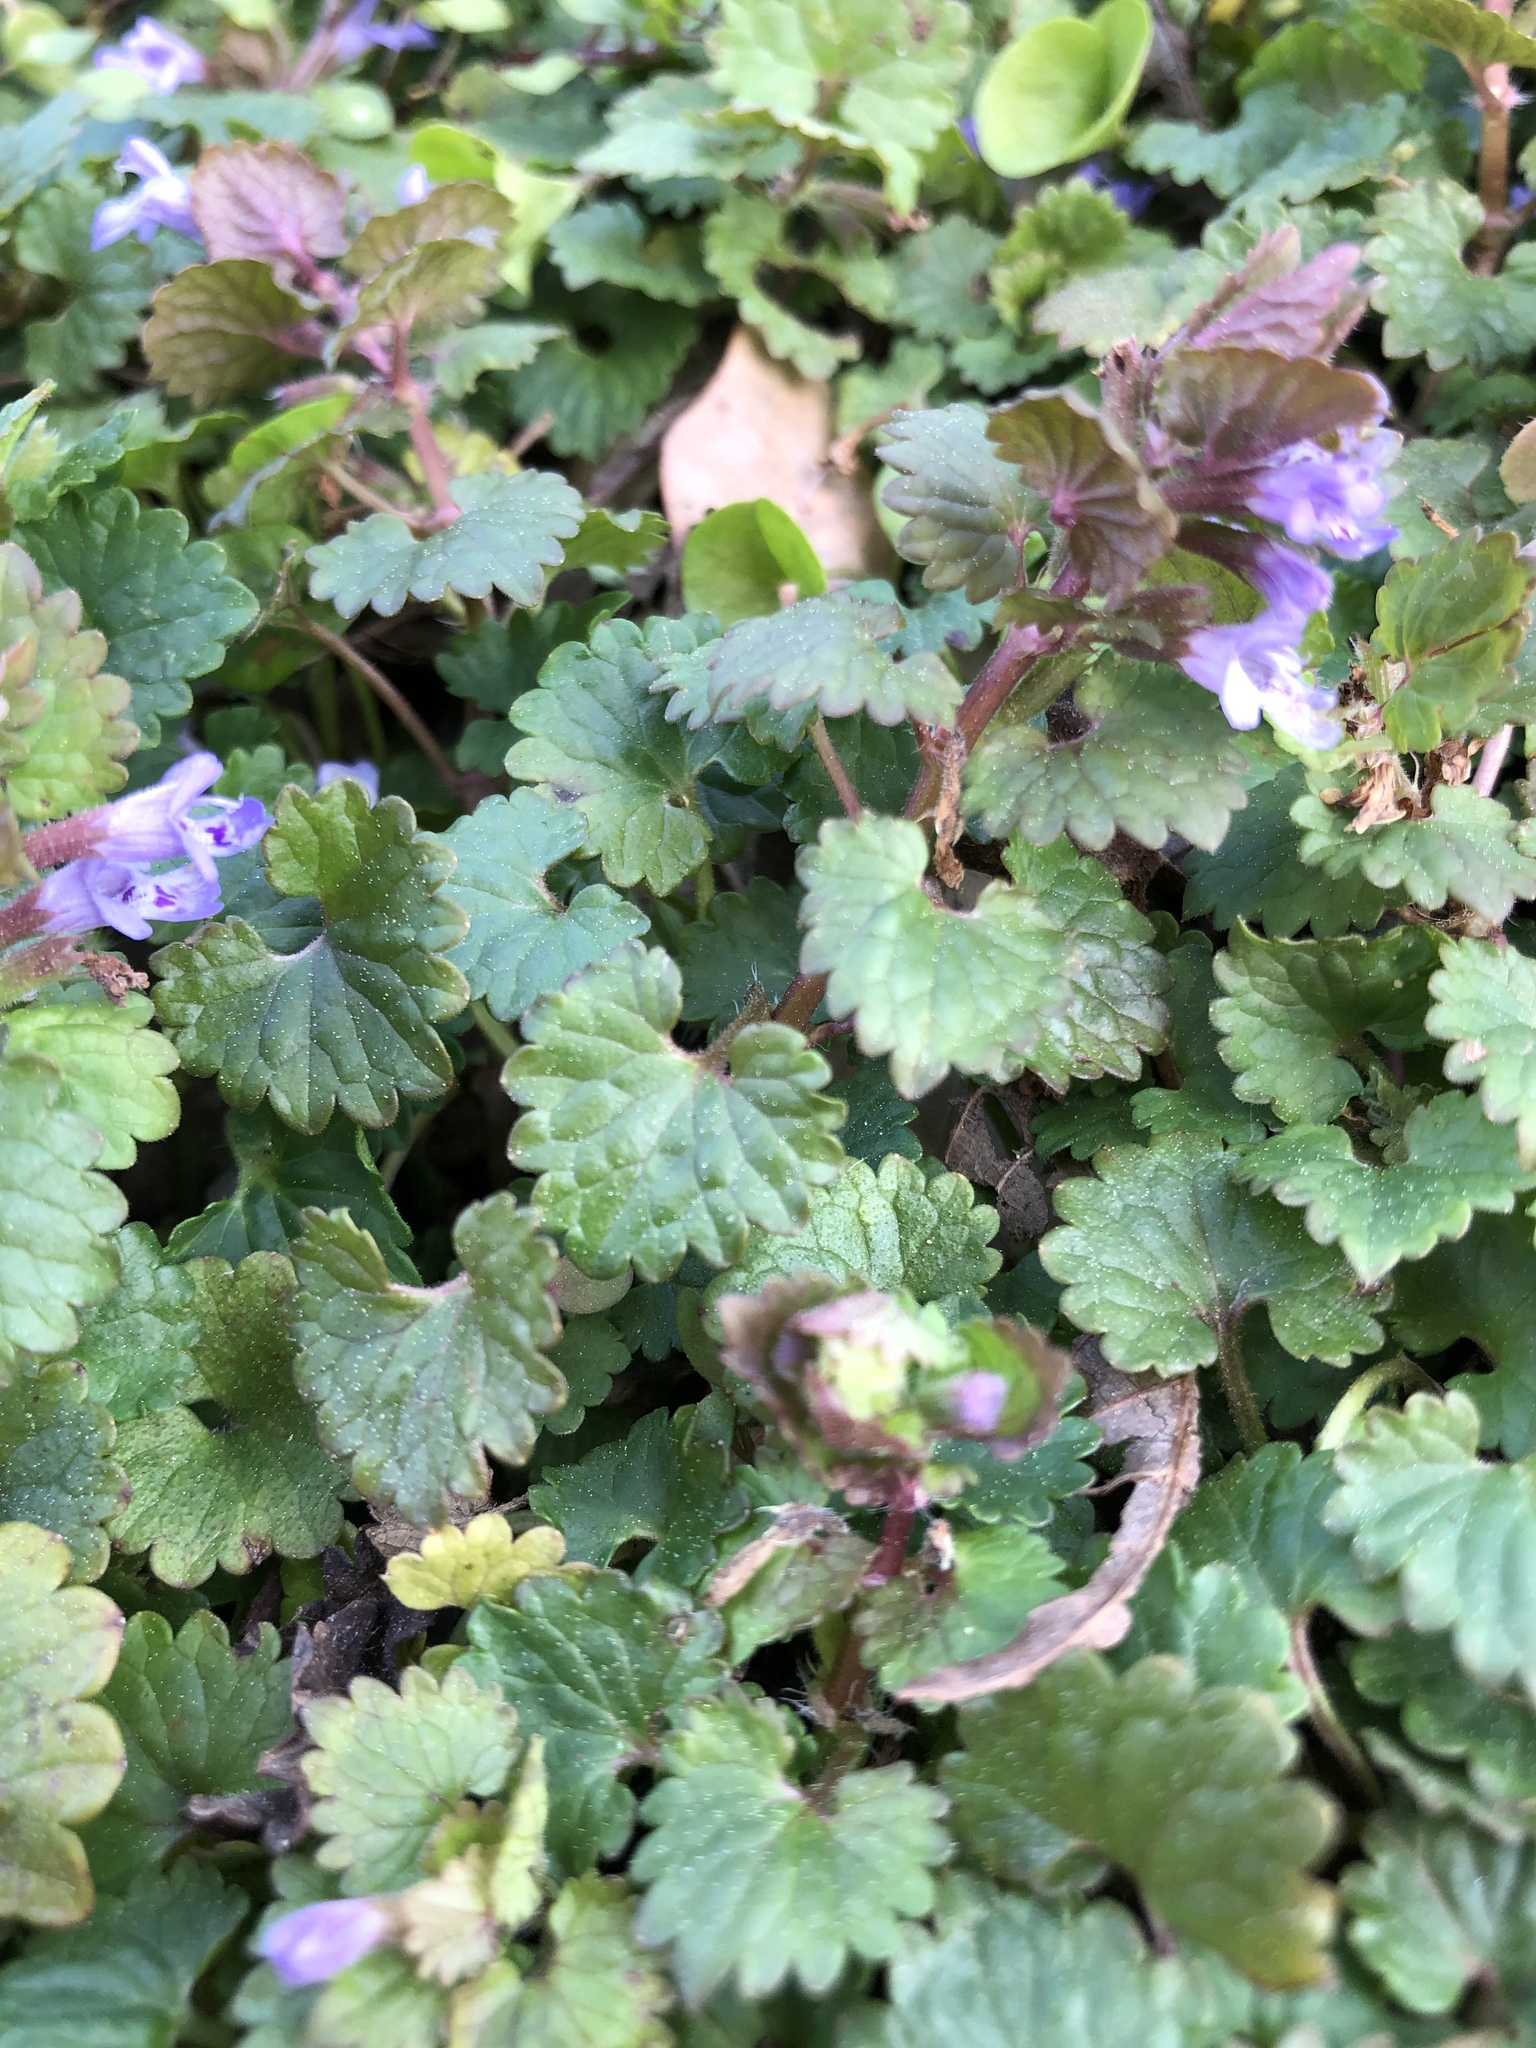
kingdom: Plantae
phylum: Tracheophyta
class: Magnoliopsida
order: Lamiales
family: Lamiaceae
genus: Glechoma
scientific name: Glechoma hederacea
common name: Ground ivy
